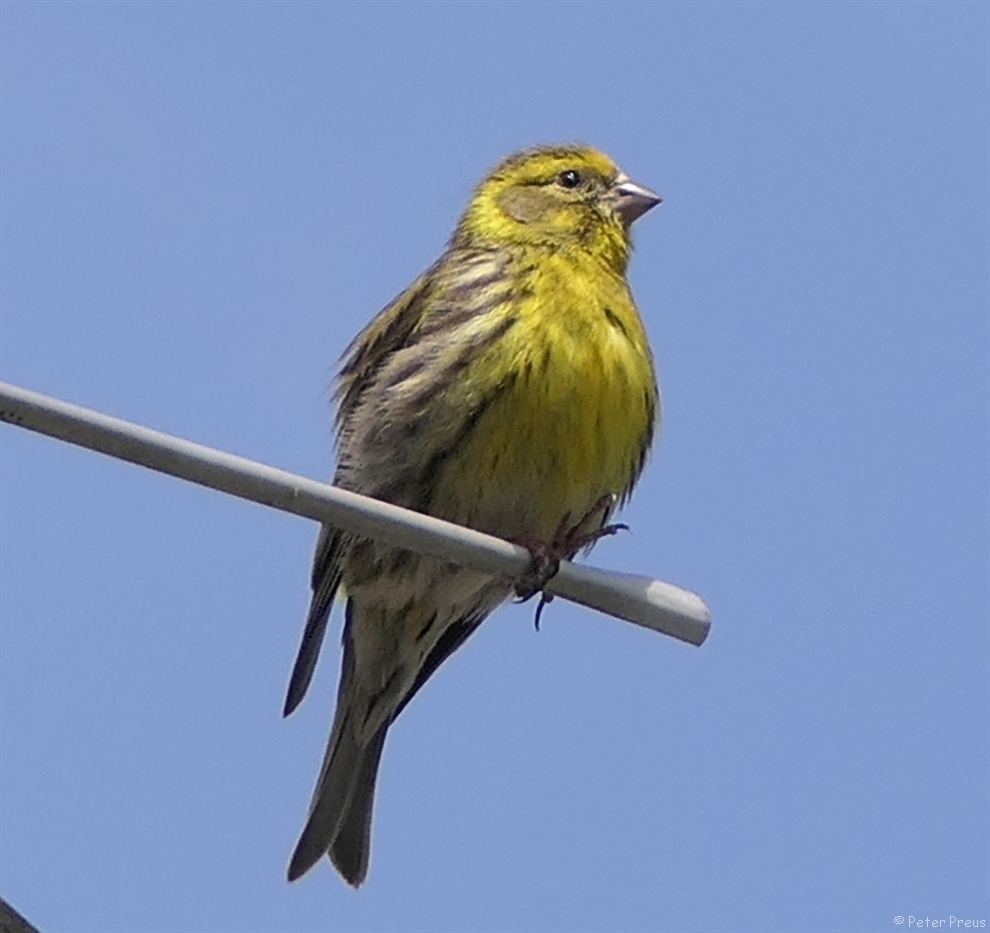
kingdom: Animalia
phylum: Chordata
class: Aves
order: Passeriformes
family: Fringillidae
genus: Serinus
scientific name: Serinus serinus
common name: European serin
